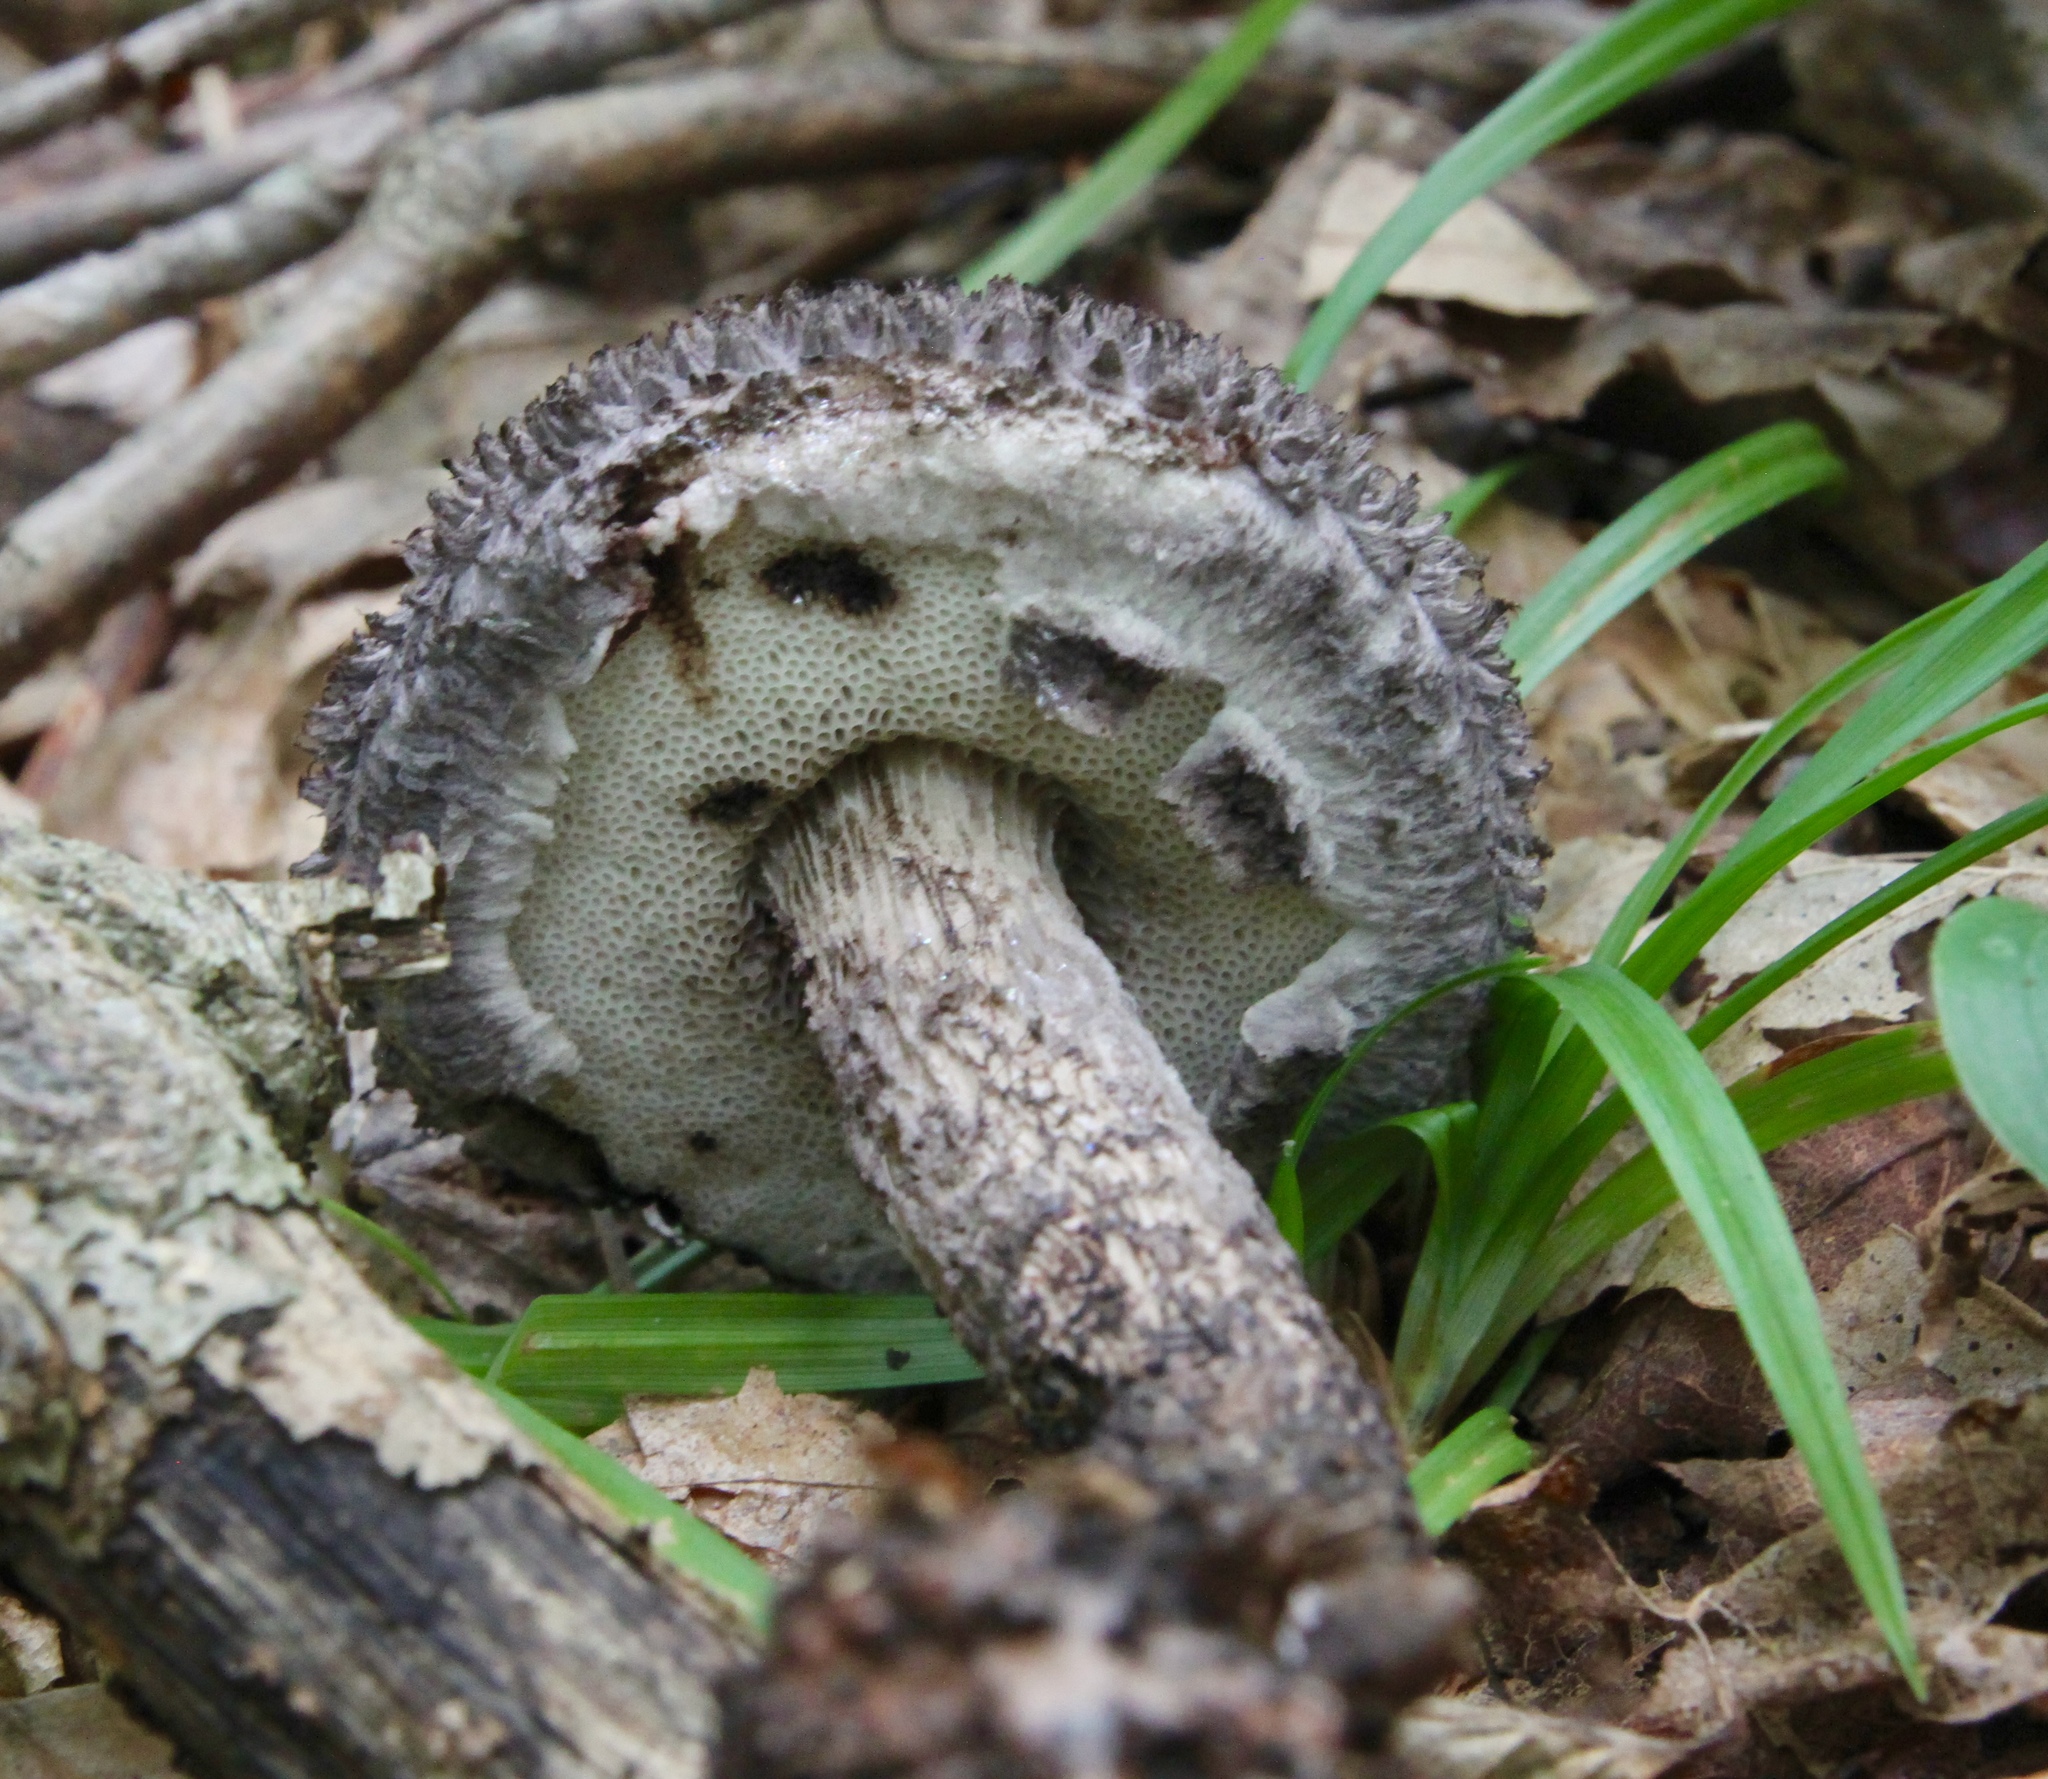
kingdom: Fungi
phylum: Basidiomycota
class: Agaricomycetes
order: Boletales
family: Boletaceae
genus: Strobilomyces
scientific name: Strobilomyces confusus
